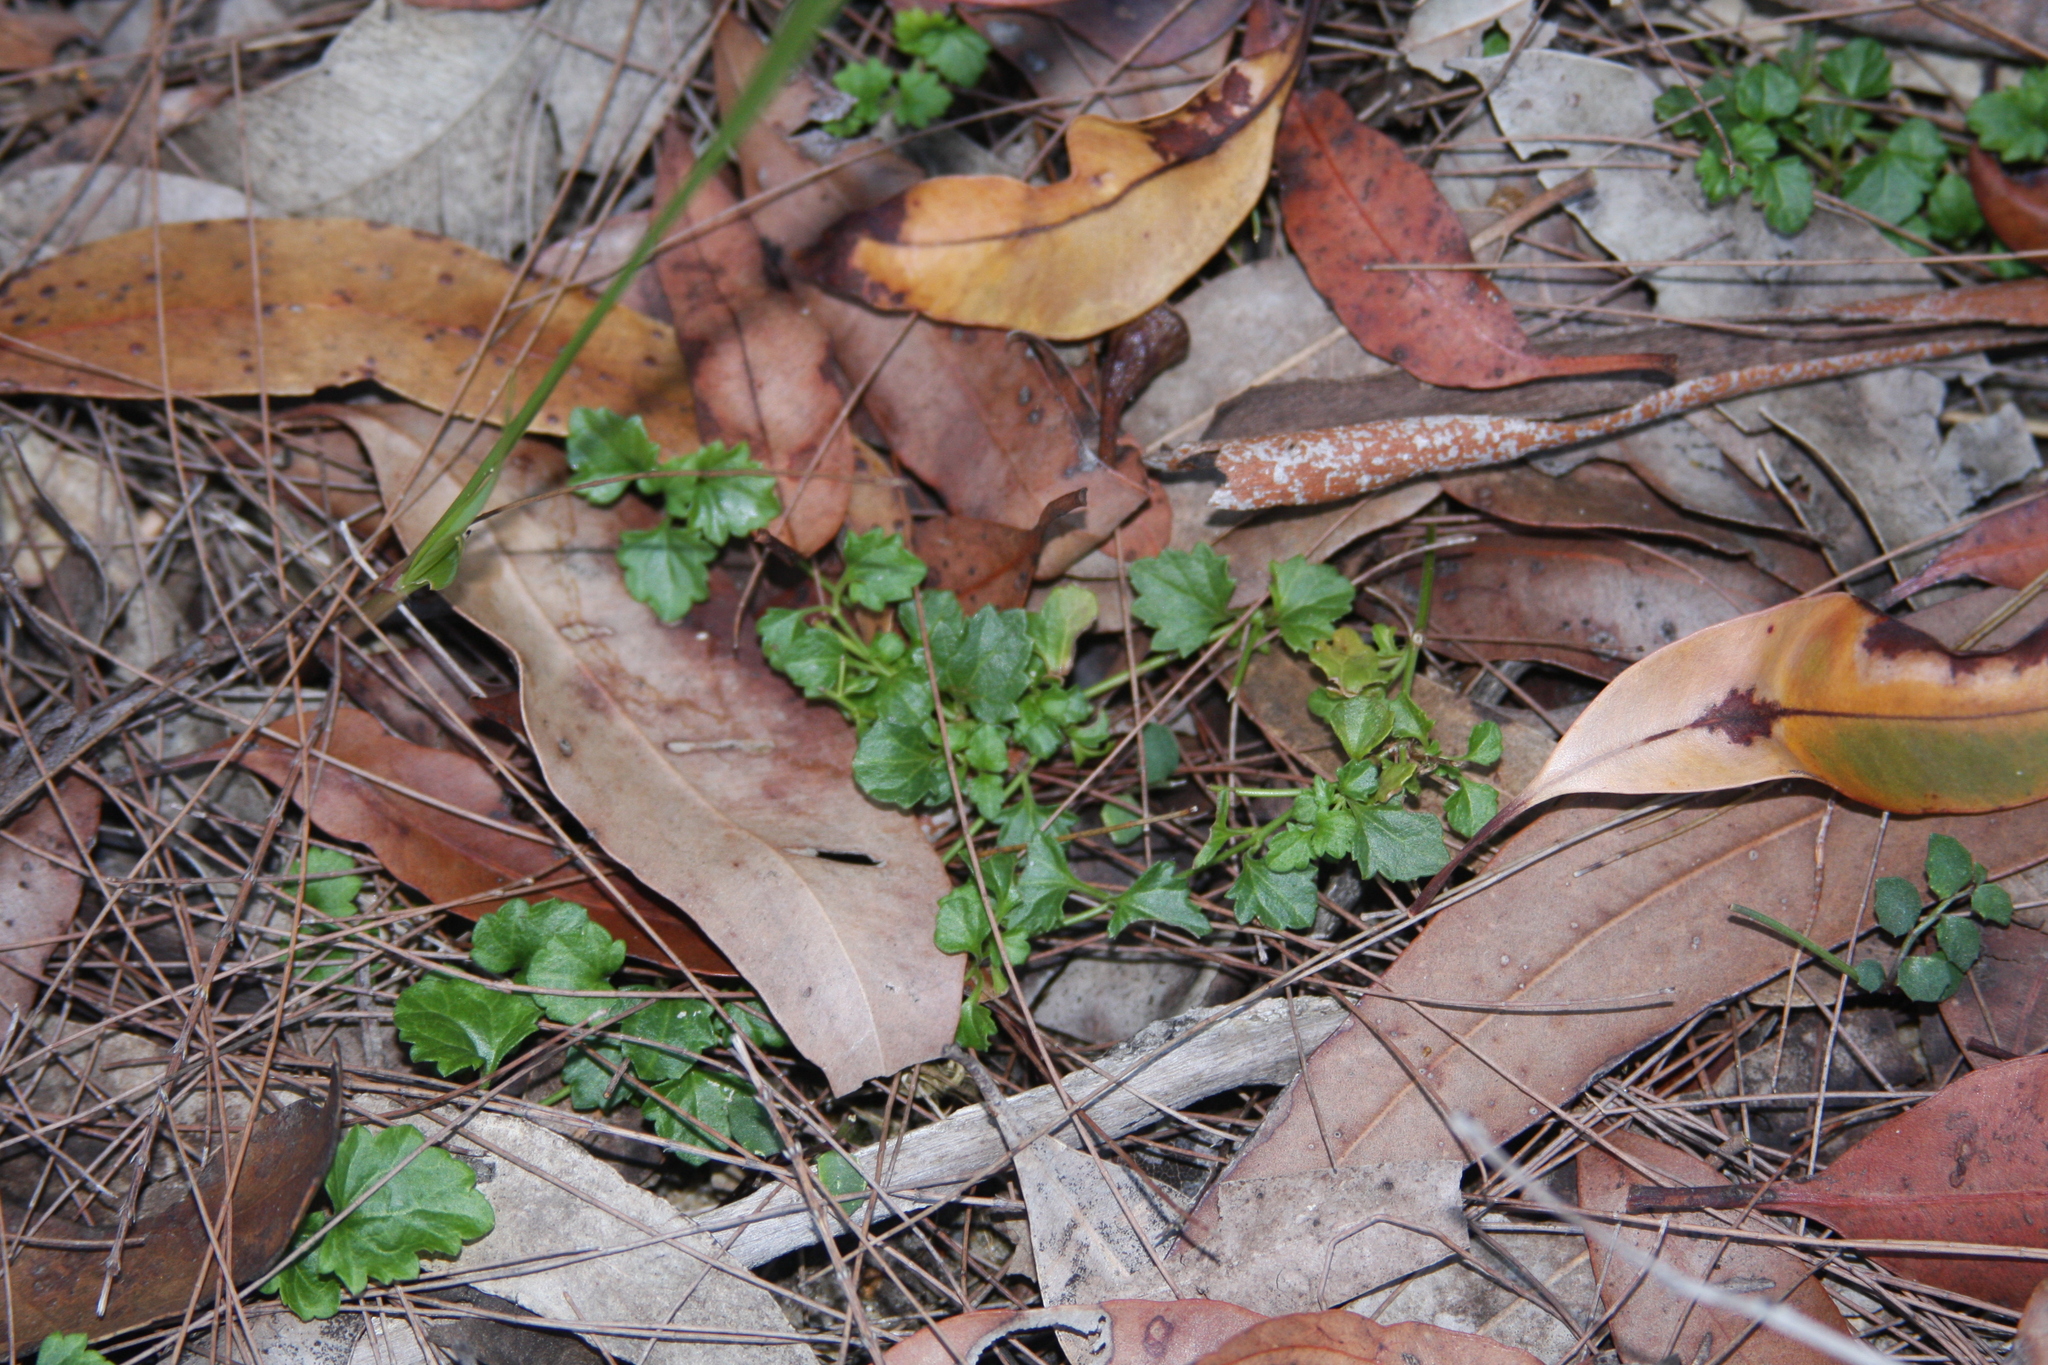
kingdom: Plantae
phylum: Tracheophyta
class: Magnoliopsida
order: Lamiales
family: Plantaginaceae
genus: Veronica
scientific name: Veronica plebeia
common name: Speedwell
